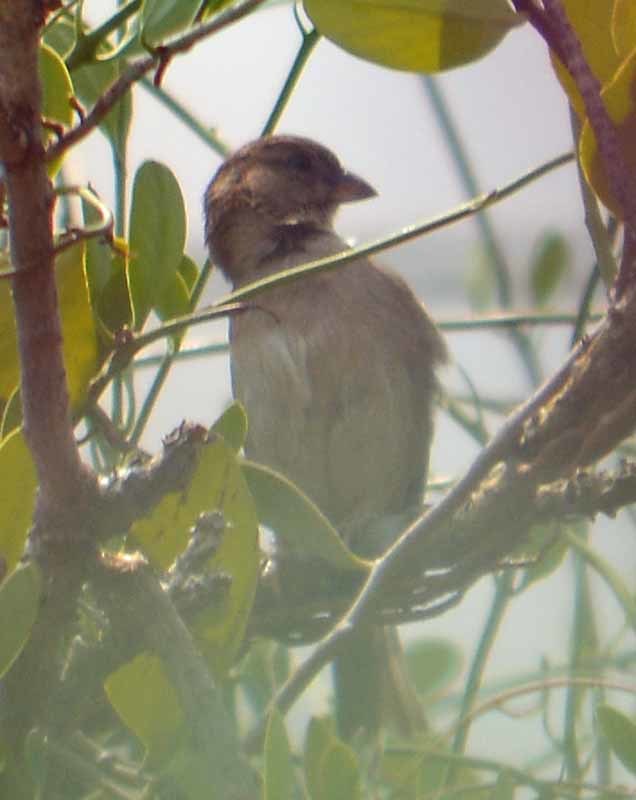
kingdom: Animalia
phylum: Chordata
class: Aves
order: Passeriformes
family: Passeridae
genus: Passer
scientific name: Passer domesticus
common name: House sparrow
